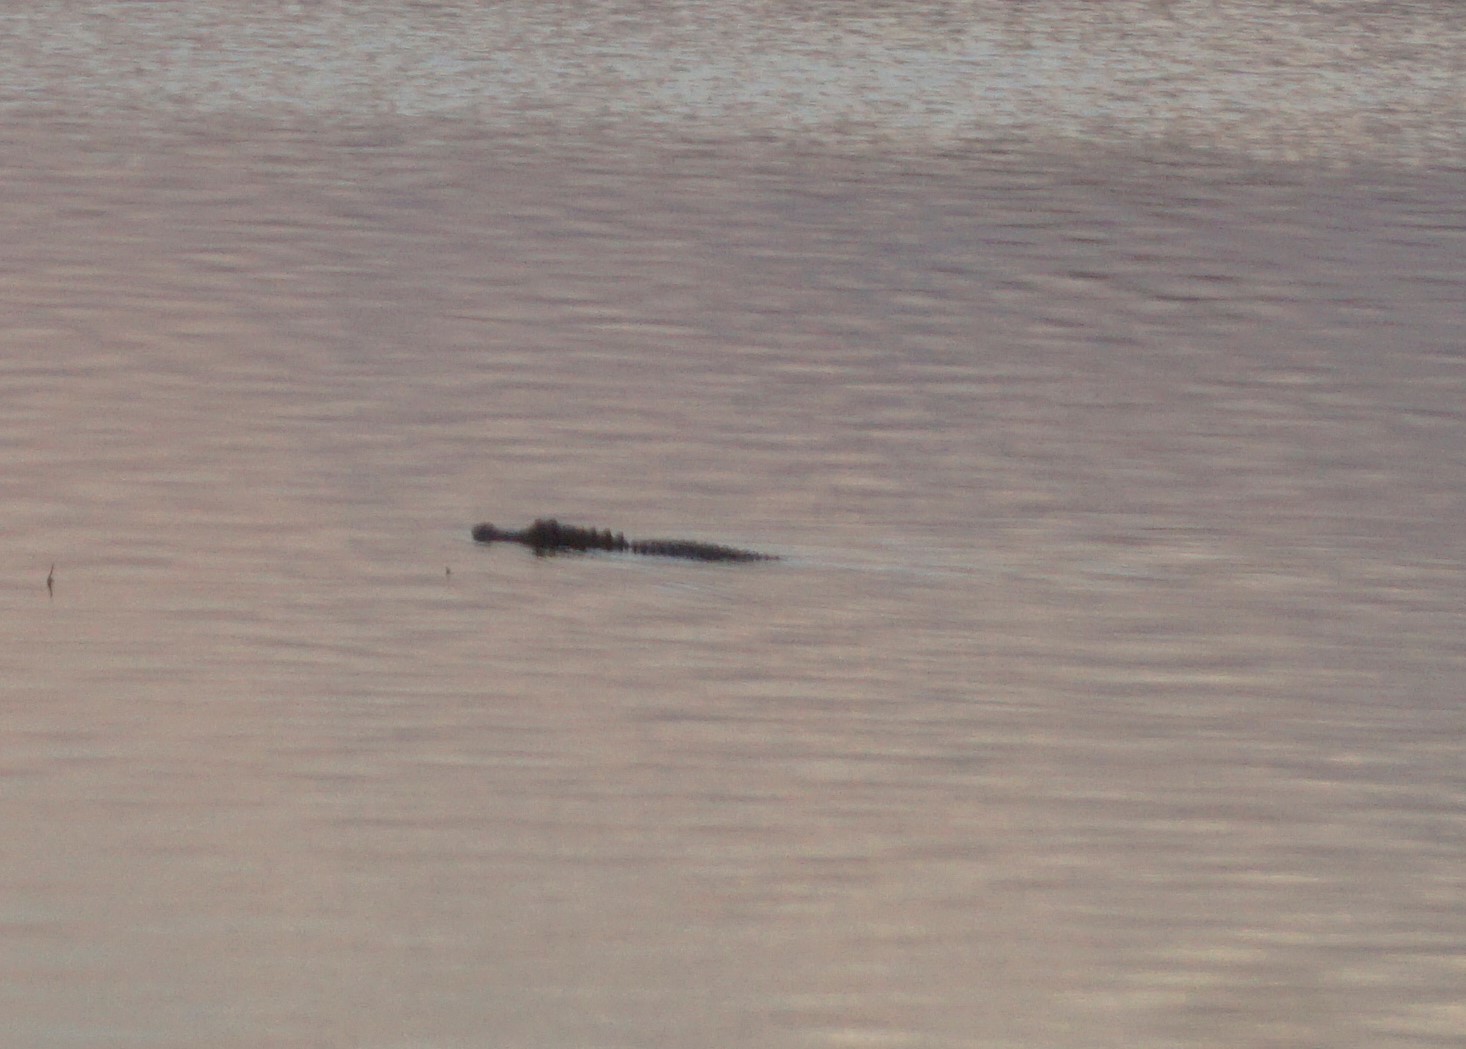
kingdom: Animalia
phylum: Chordata
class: Crocodylia
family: Alligatoridae
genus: Alligator
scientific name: Alligator mississippiensis
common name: American alligator
